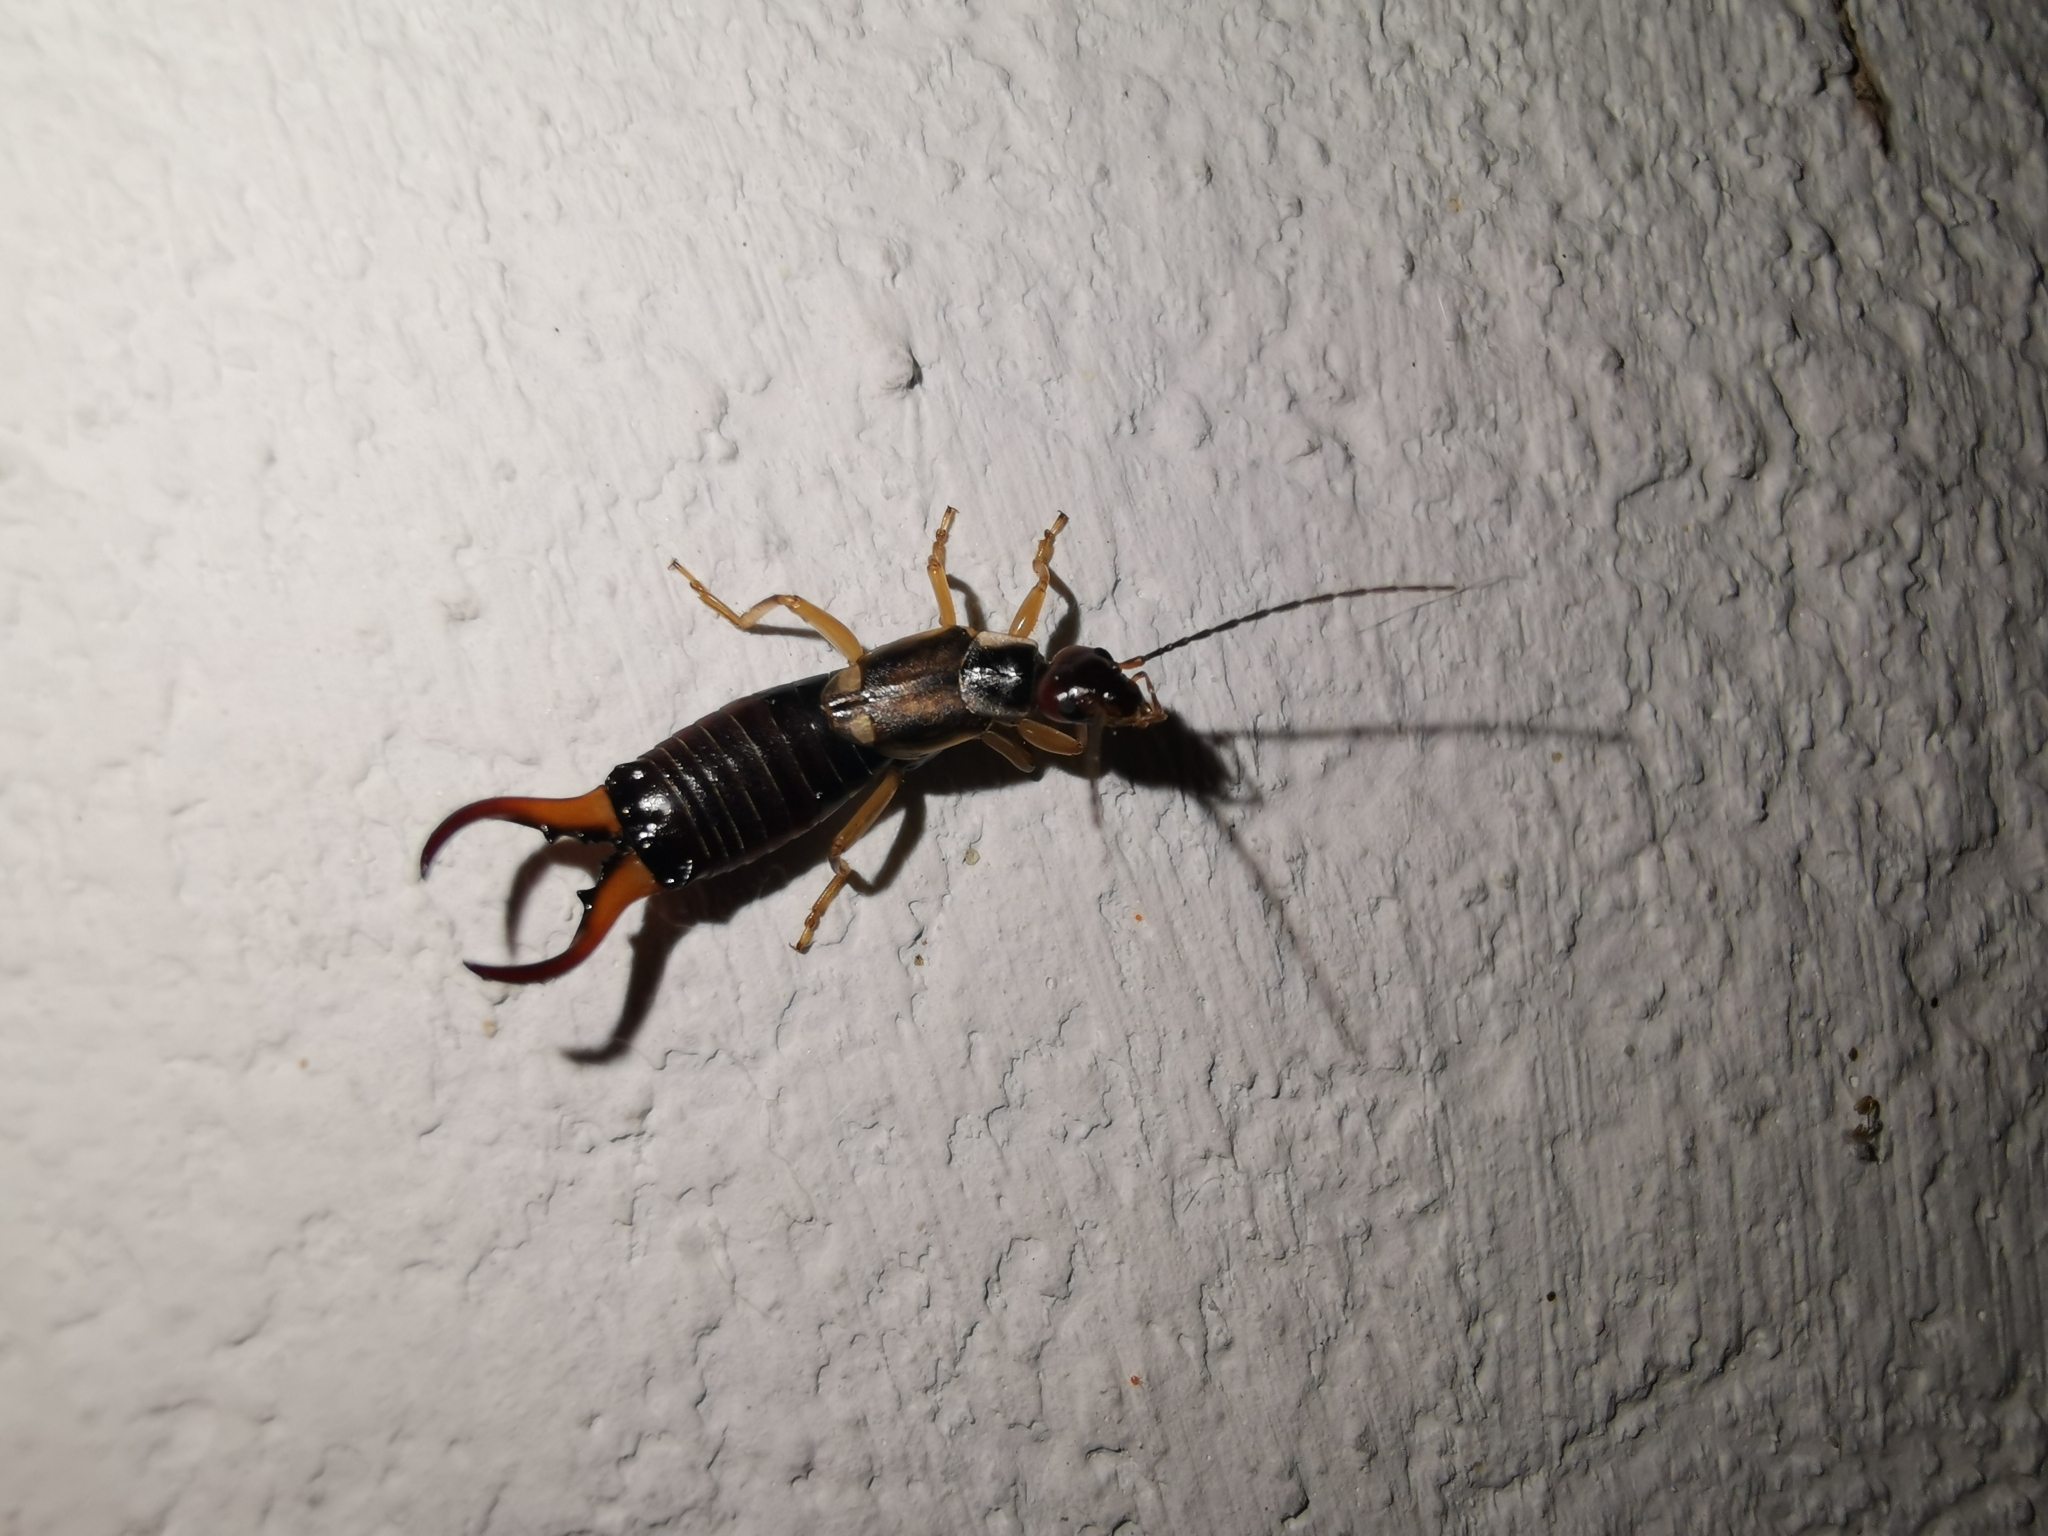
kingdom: Animalia
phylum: Arthropoda
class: Insecta
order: Dermaptera
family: Forficulidae
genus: Forficula
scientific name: Forficula
